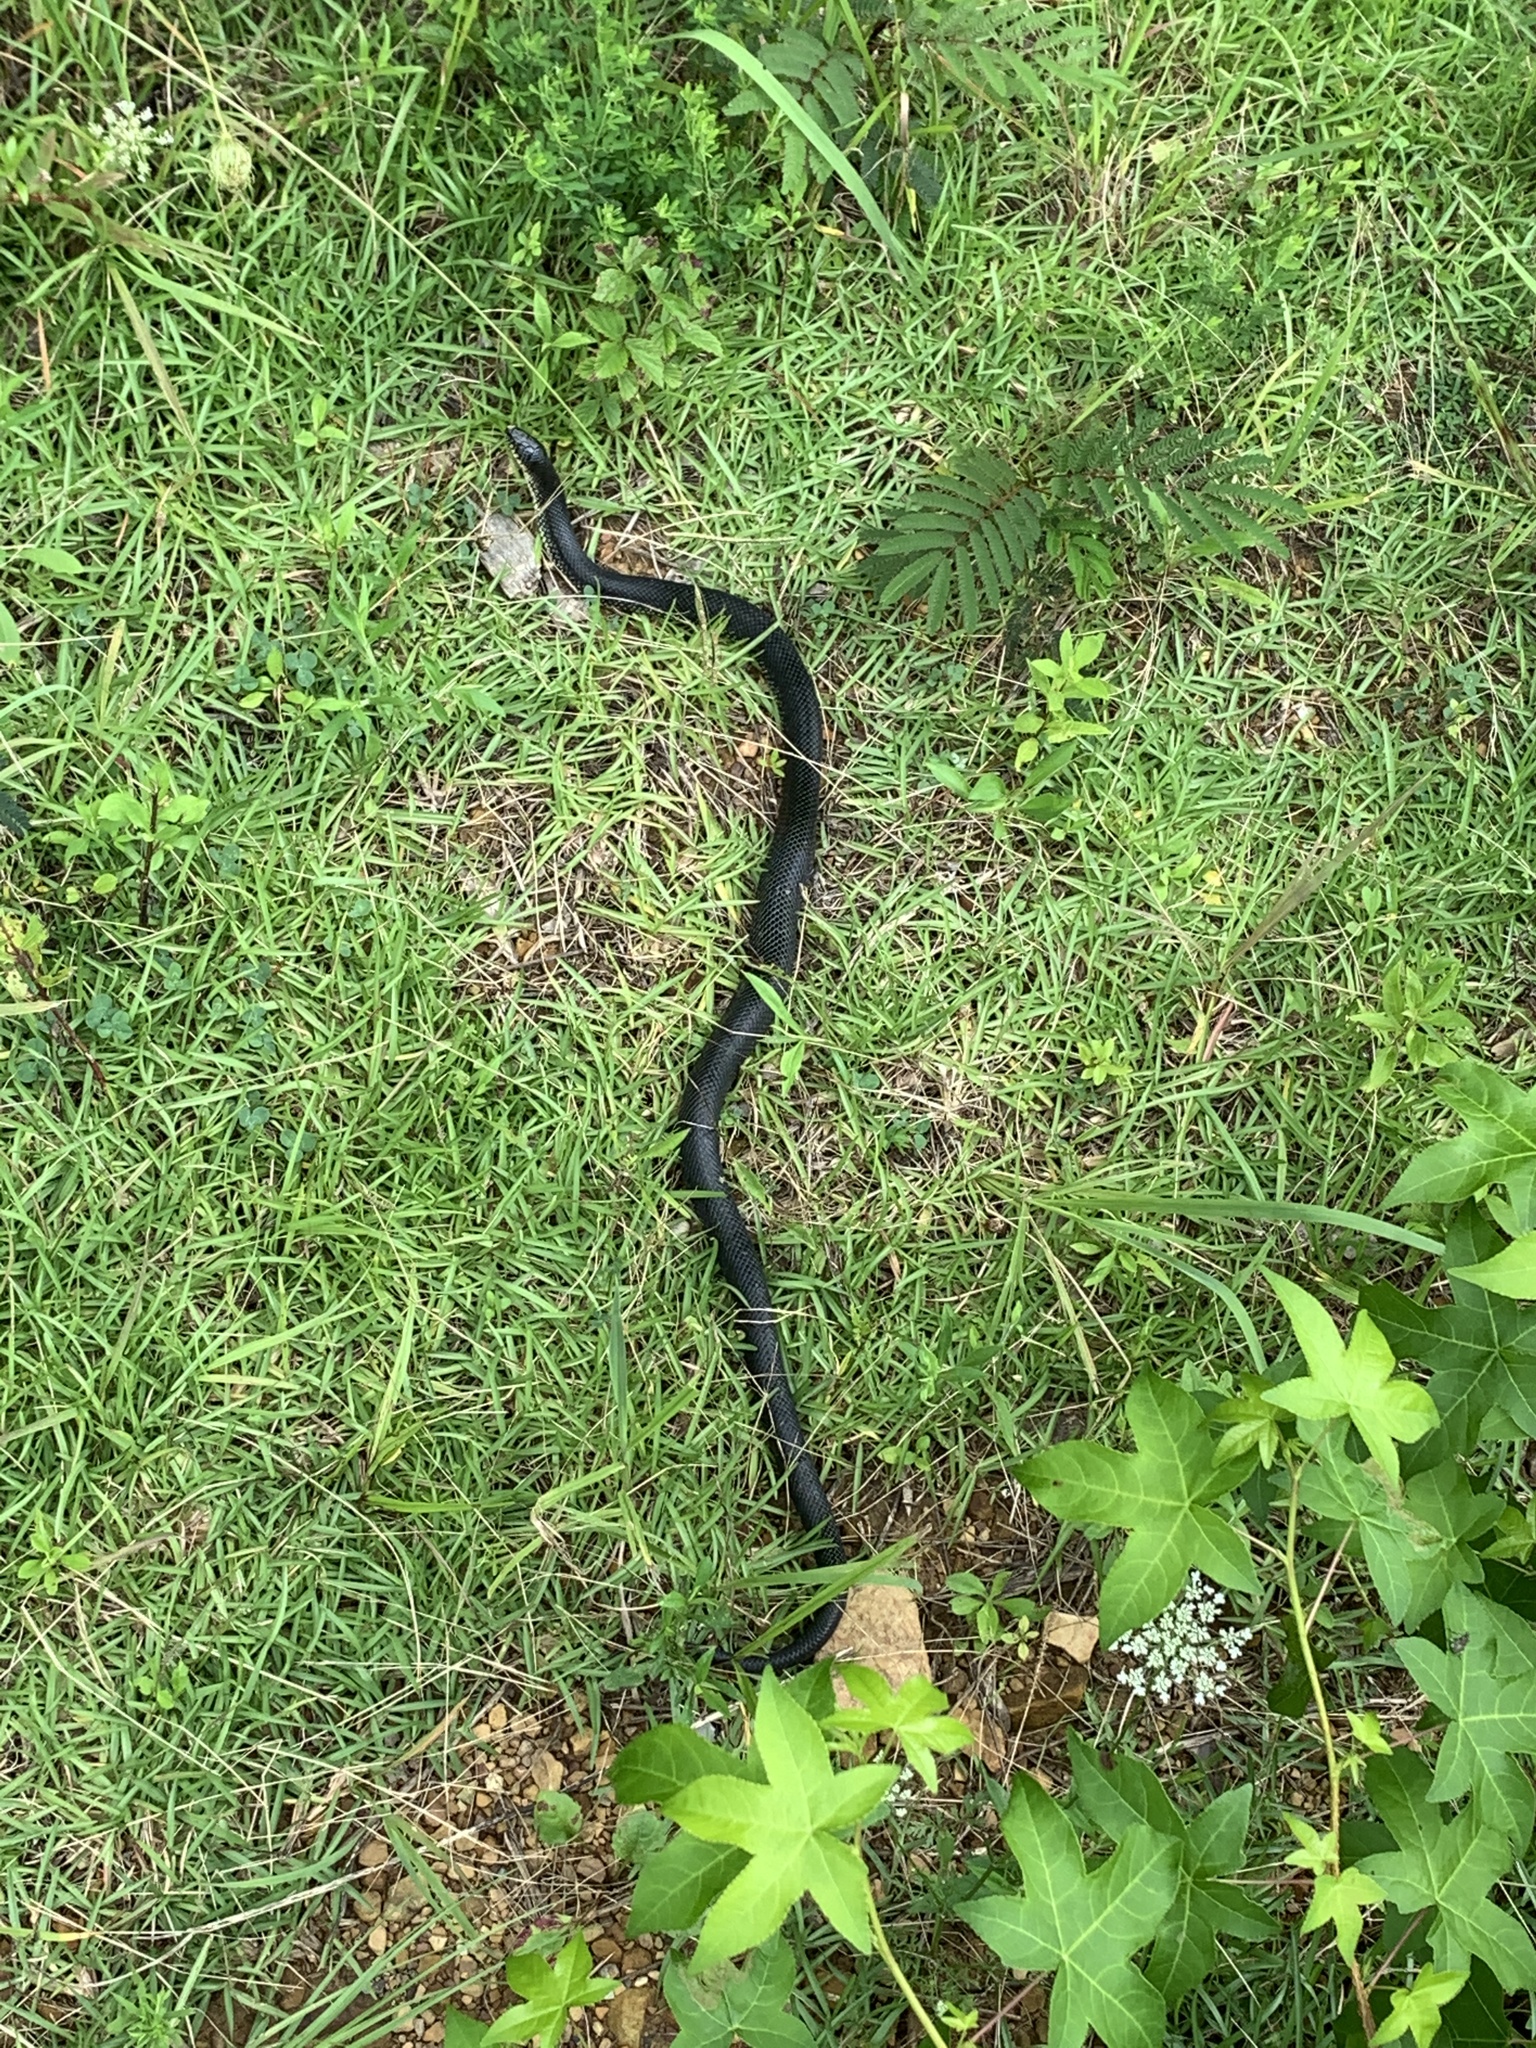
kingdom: Animalia
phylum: Chordata
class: Squamata
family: Colubridae
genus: Lampropeltis
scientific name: Lampropeltis nigra
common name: Black kingsnake
